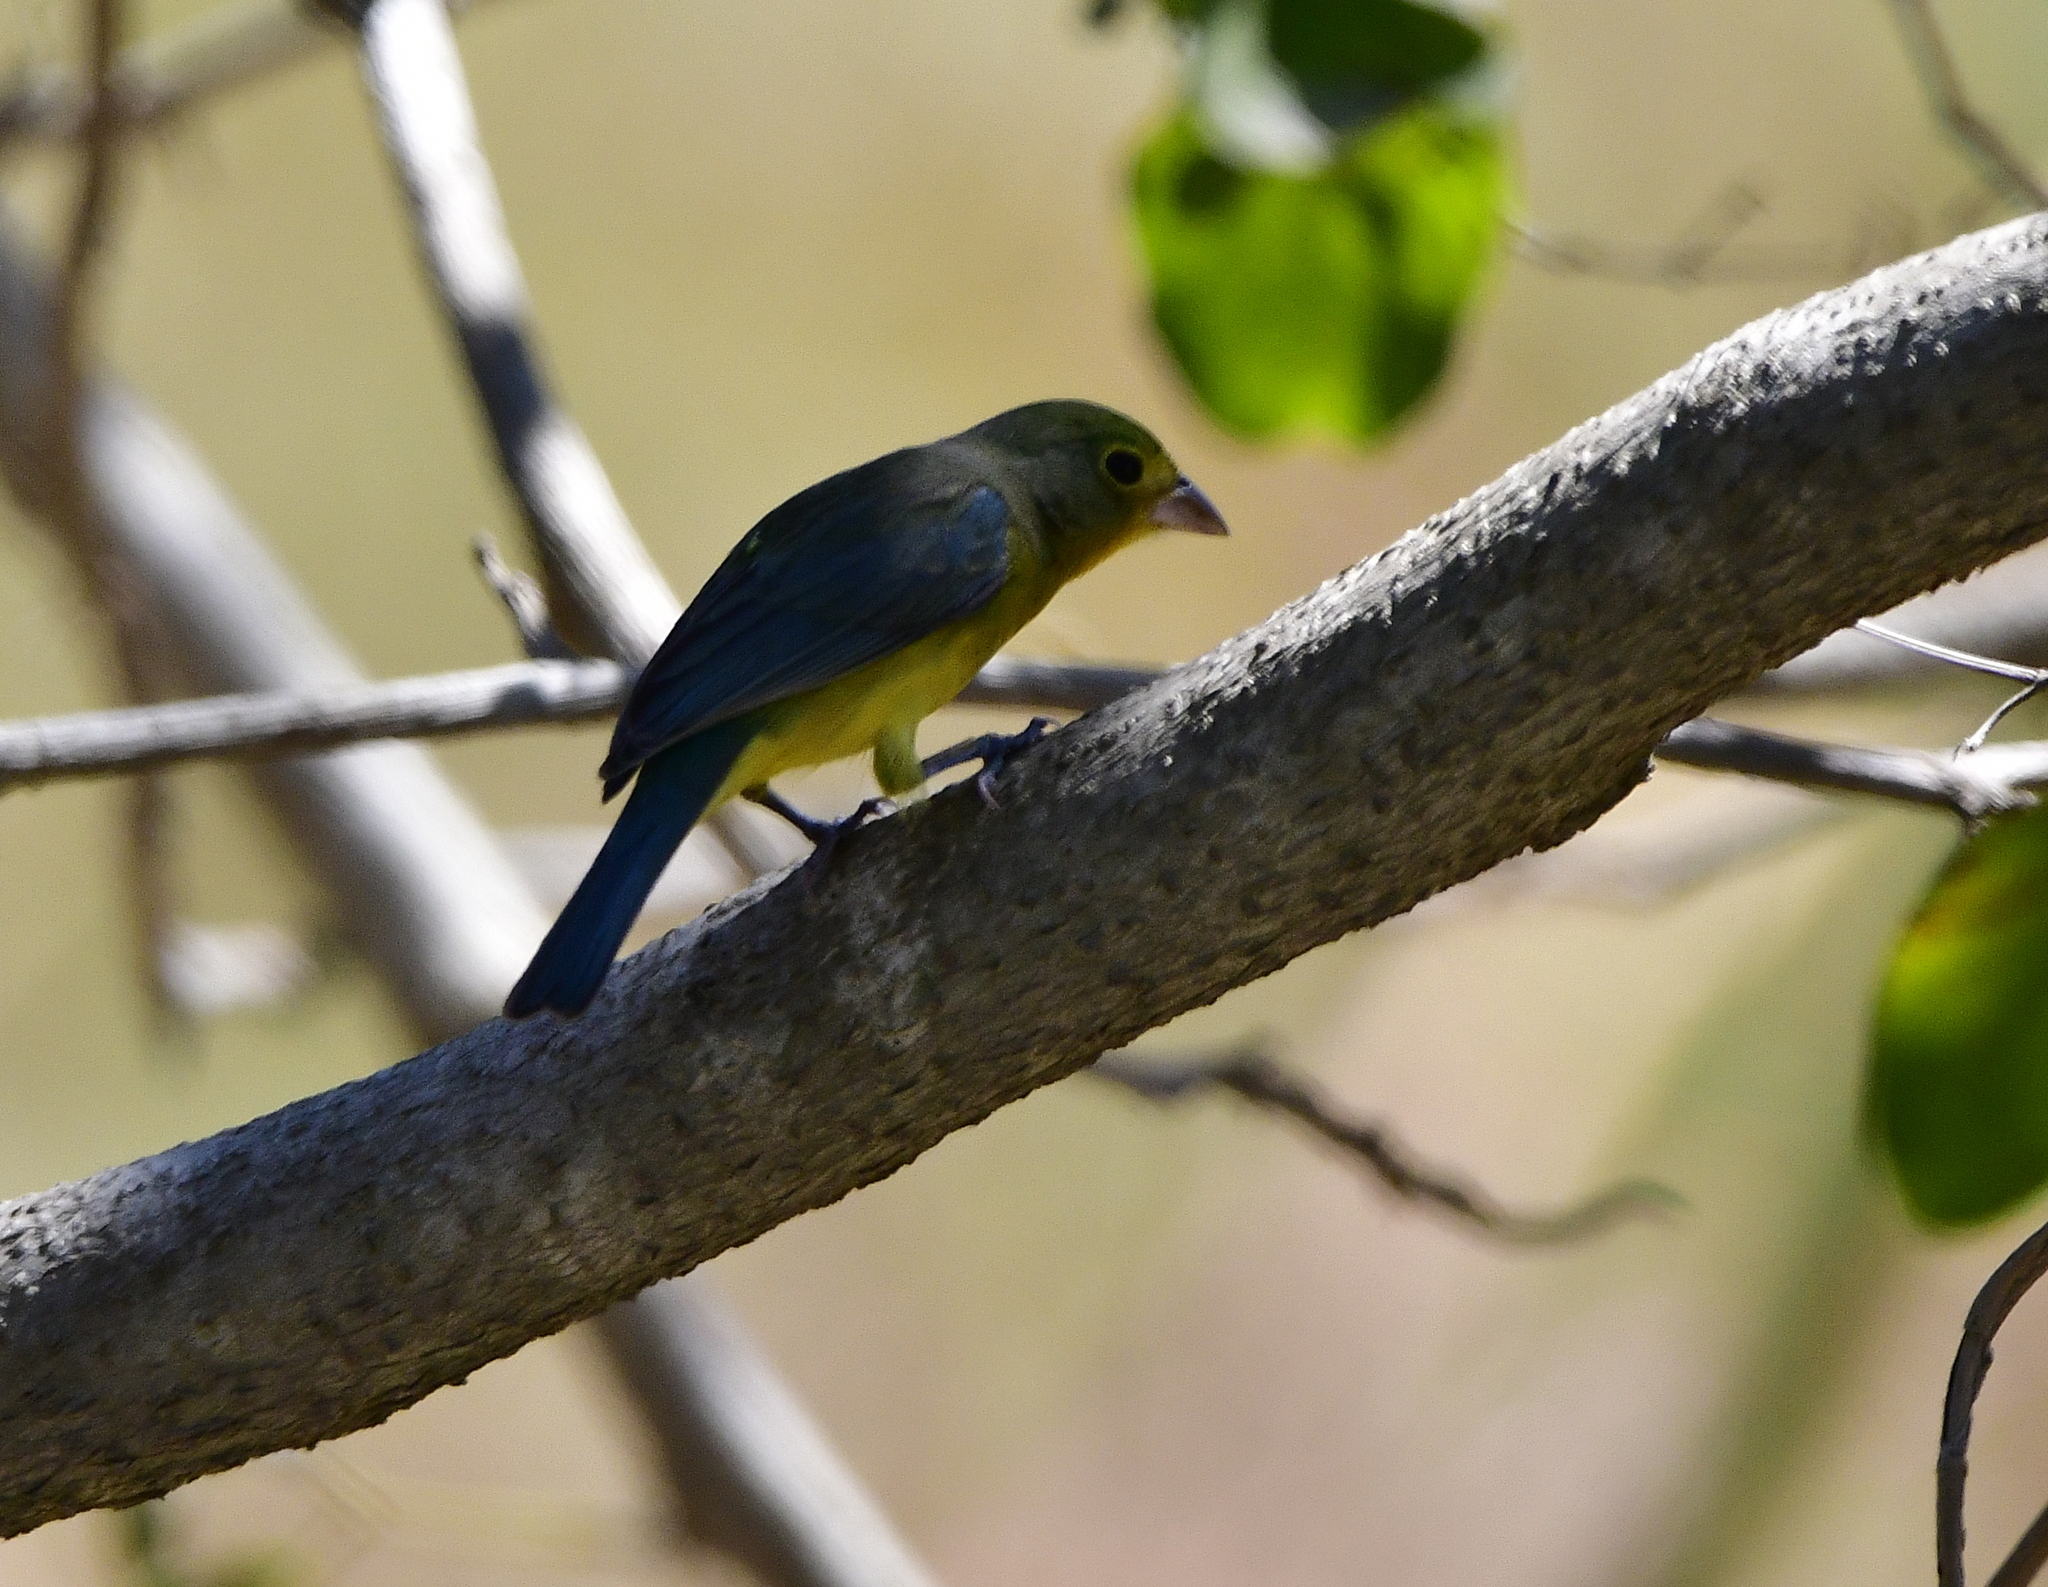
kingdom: Animalia
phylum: Chordata
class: Aves
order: Passeriformes
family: Cardinalidae
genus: Passerina
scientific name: Passerina leclancherii
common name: Orange-breasted bunting
